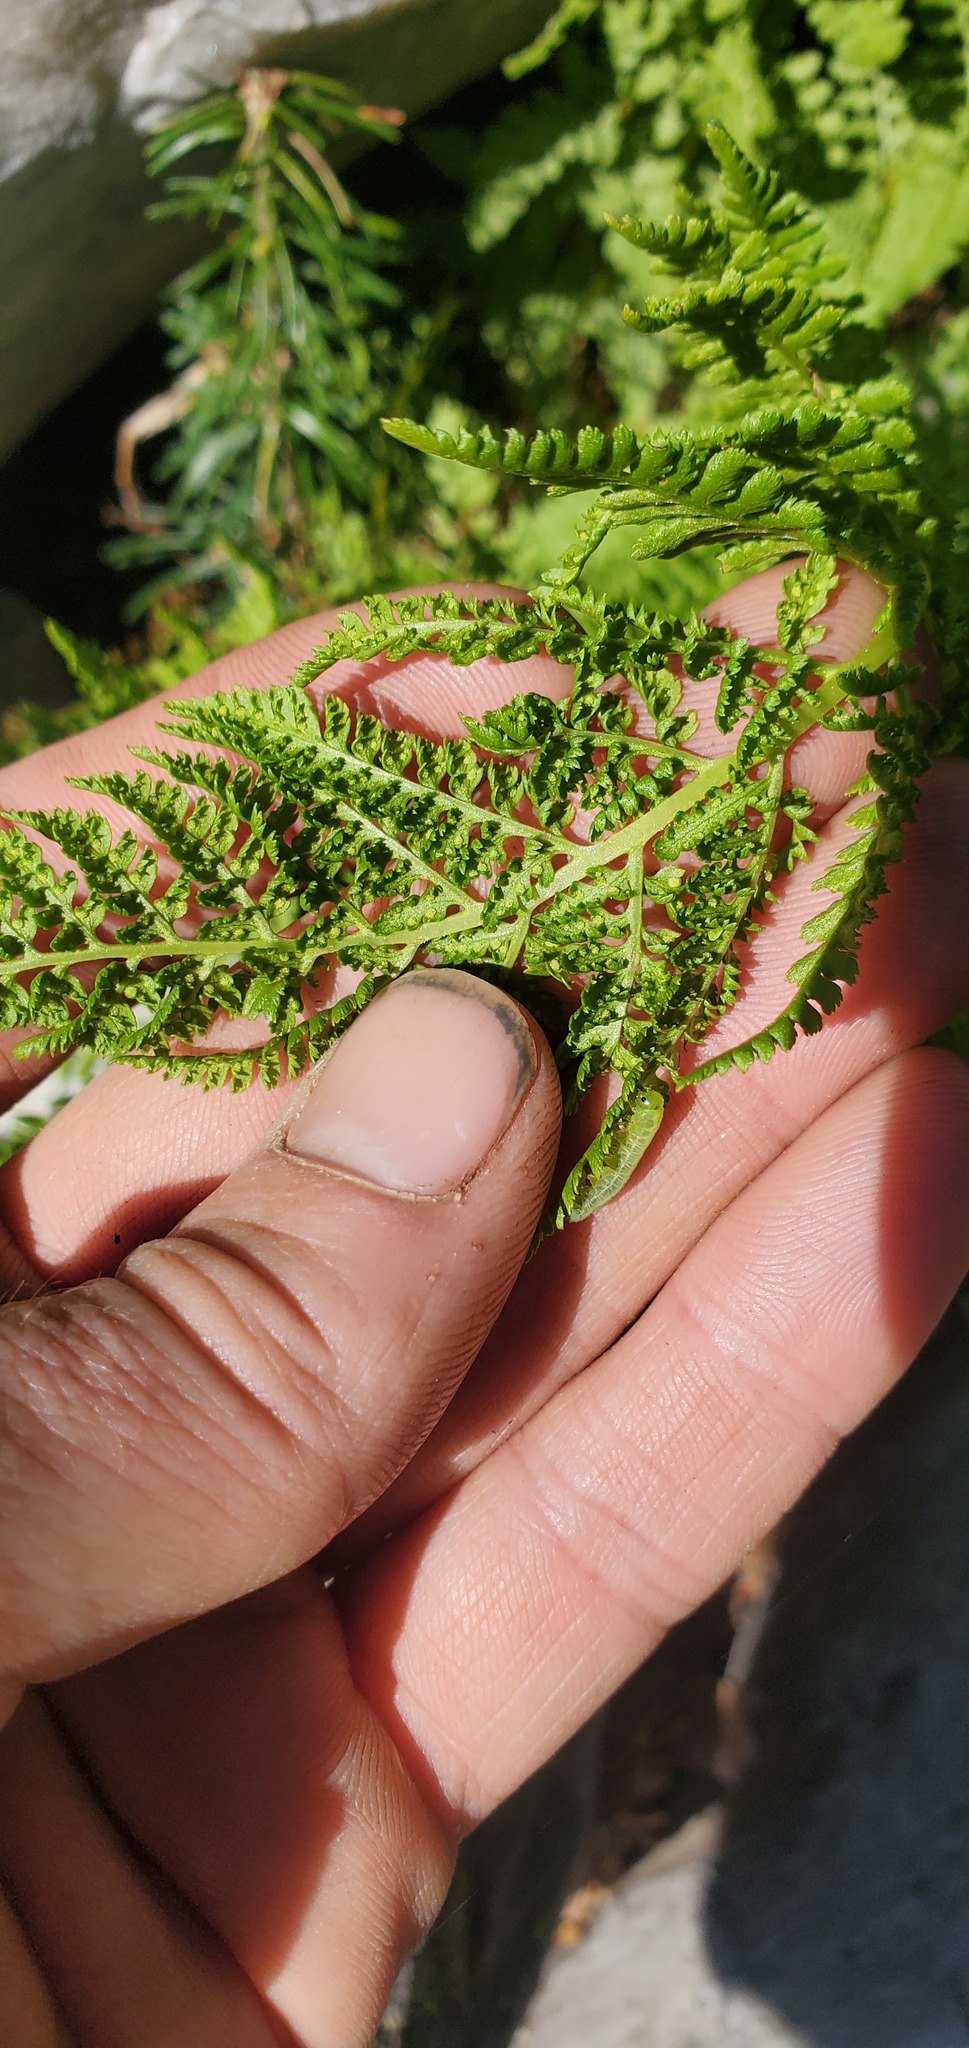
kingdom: Plantae
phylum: Tracheophyta
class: Polypodiopsida
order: Polypodiales
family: Athyriaceae
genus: Athyrium
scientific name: Athyrium americanum
